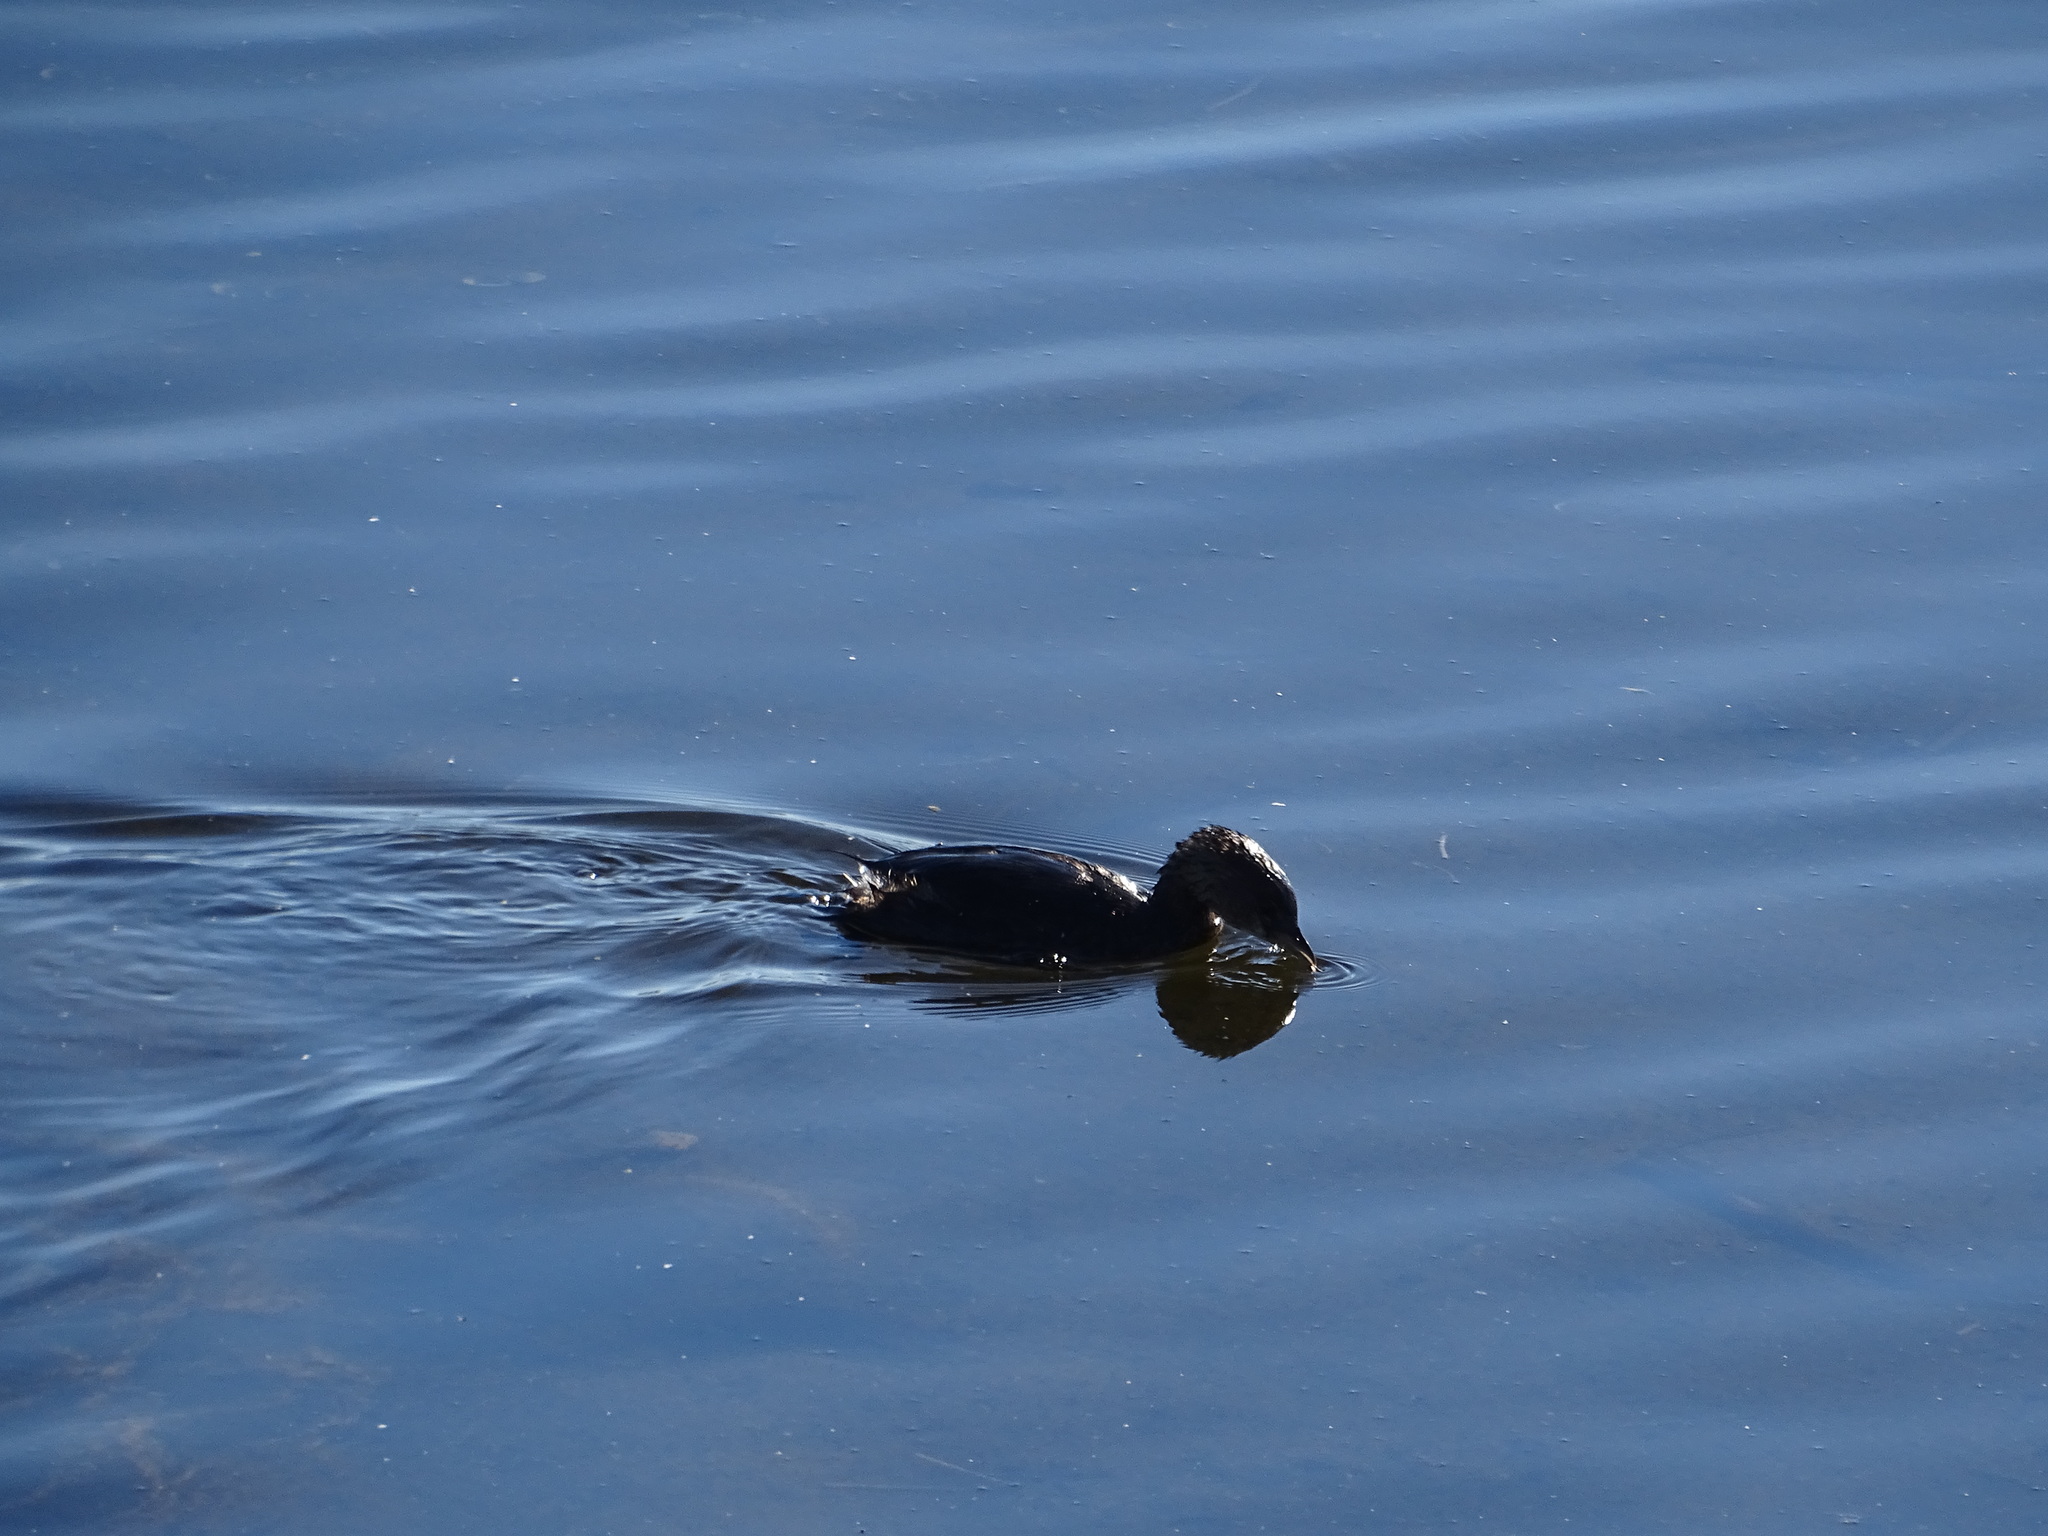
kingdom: Animalia
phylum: Chordata
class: Aves
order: Podicipediformes
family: Podicipedidae
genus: Podilymbus
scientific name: Podilymbus podiceps
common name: Pied-billed grebe
